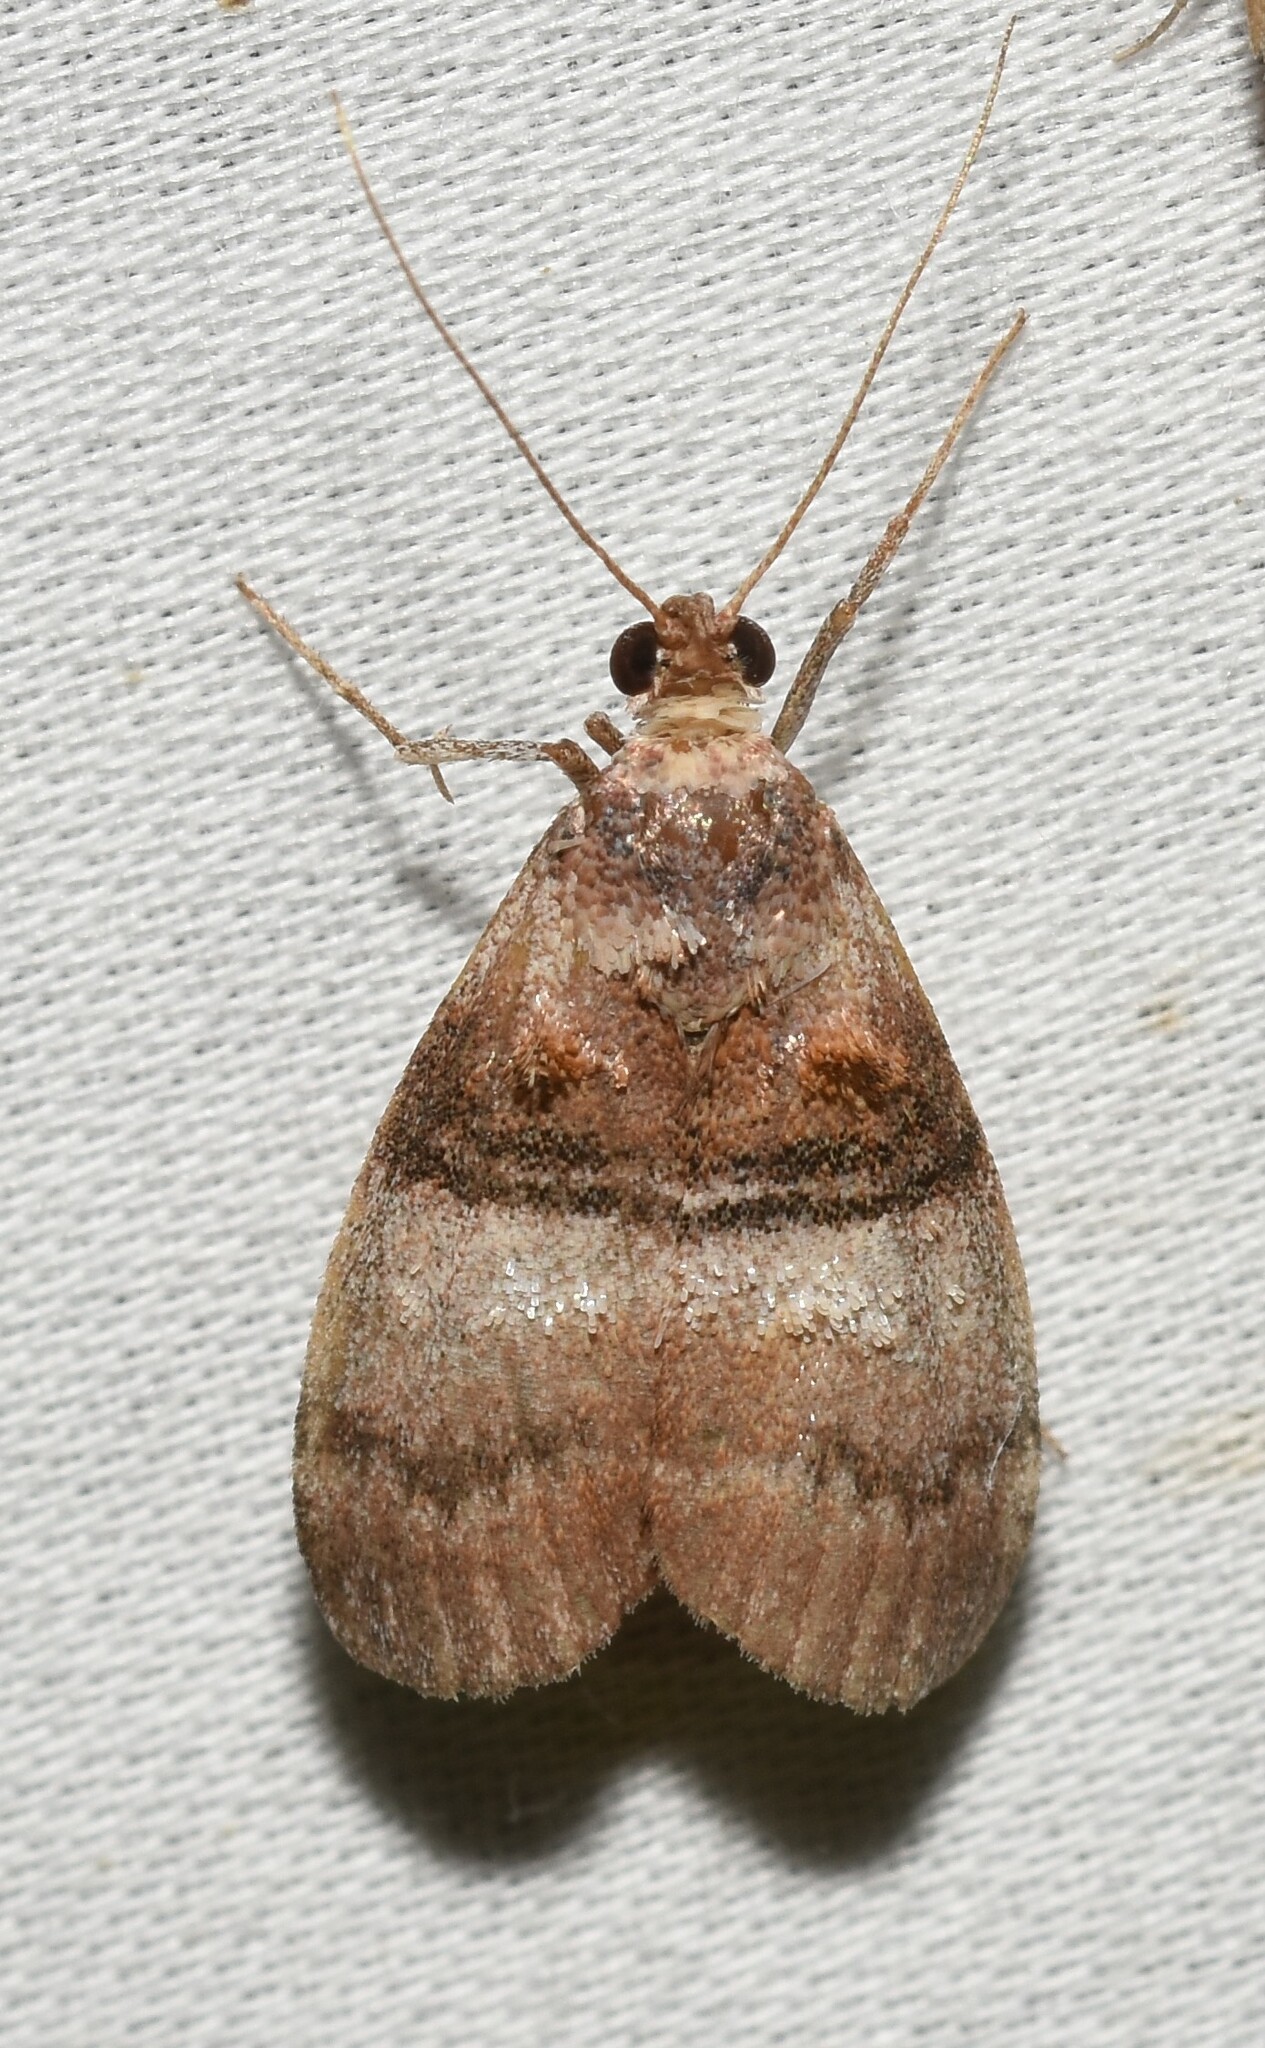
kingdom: Animalia
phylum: Arthropoda
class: Insecta
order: Lepidoptera
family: Pyralidae
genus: Pococera
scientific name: Pococera militella
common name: Sycamore webworm moth
